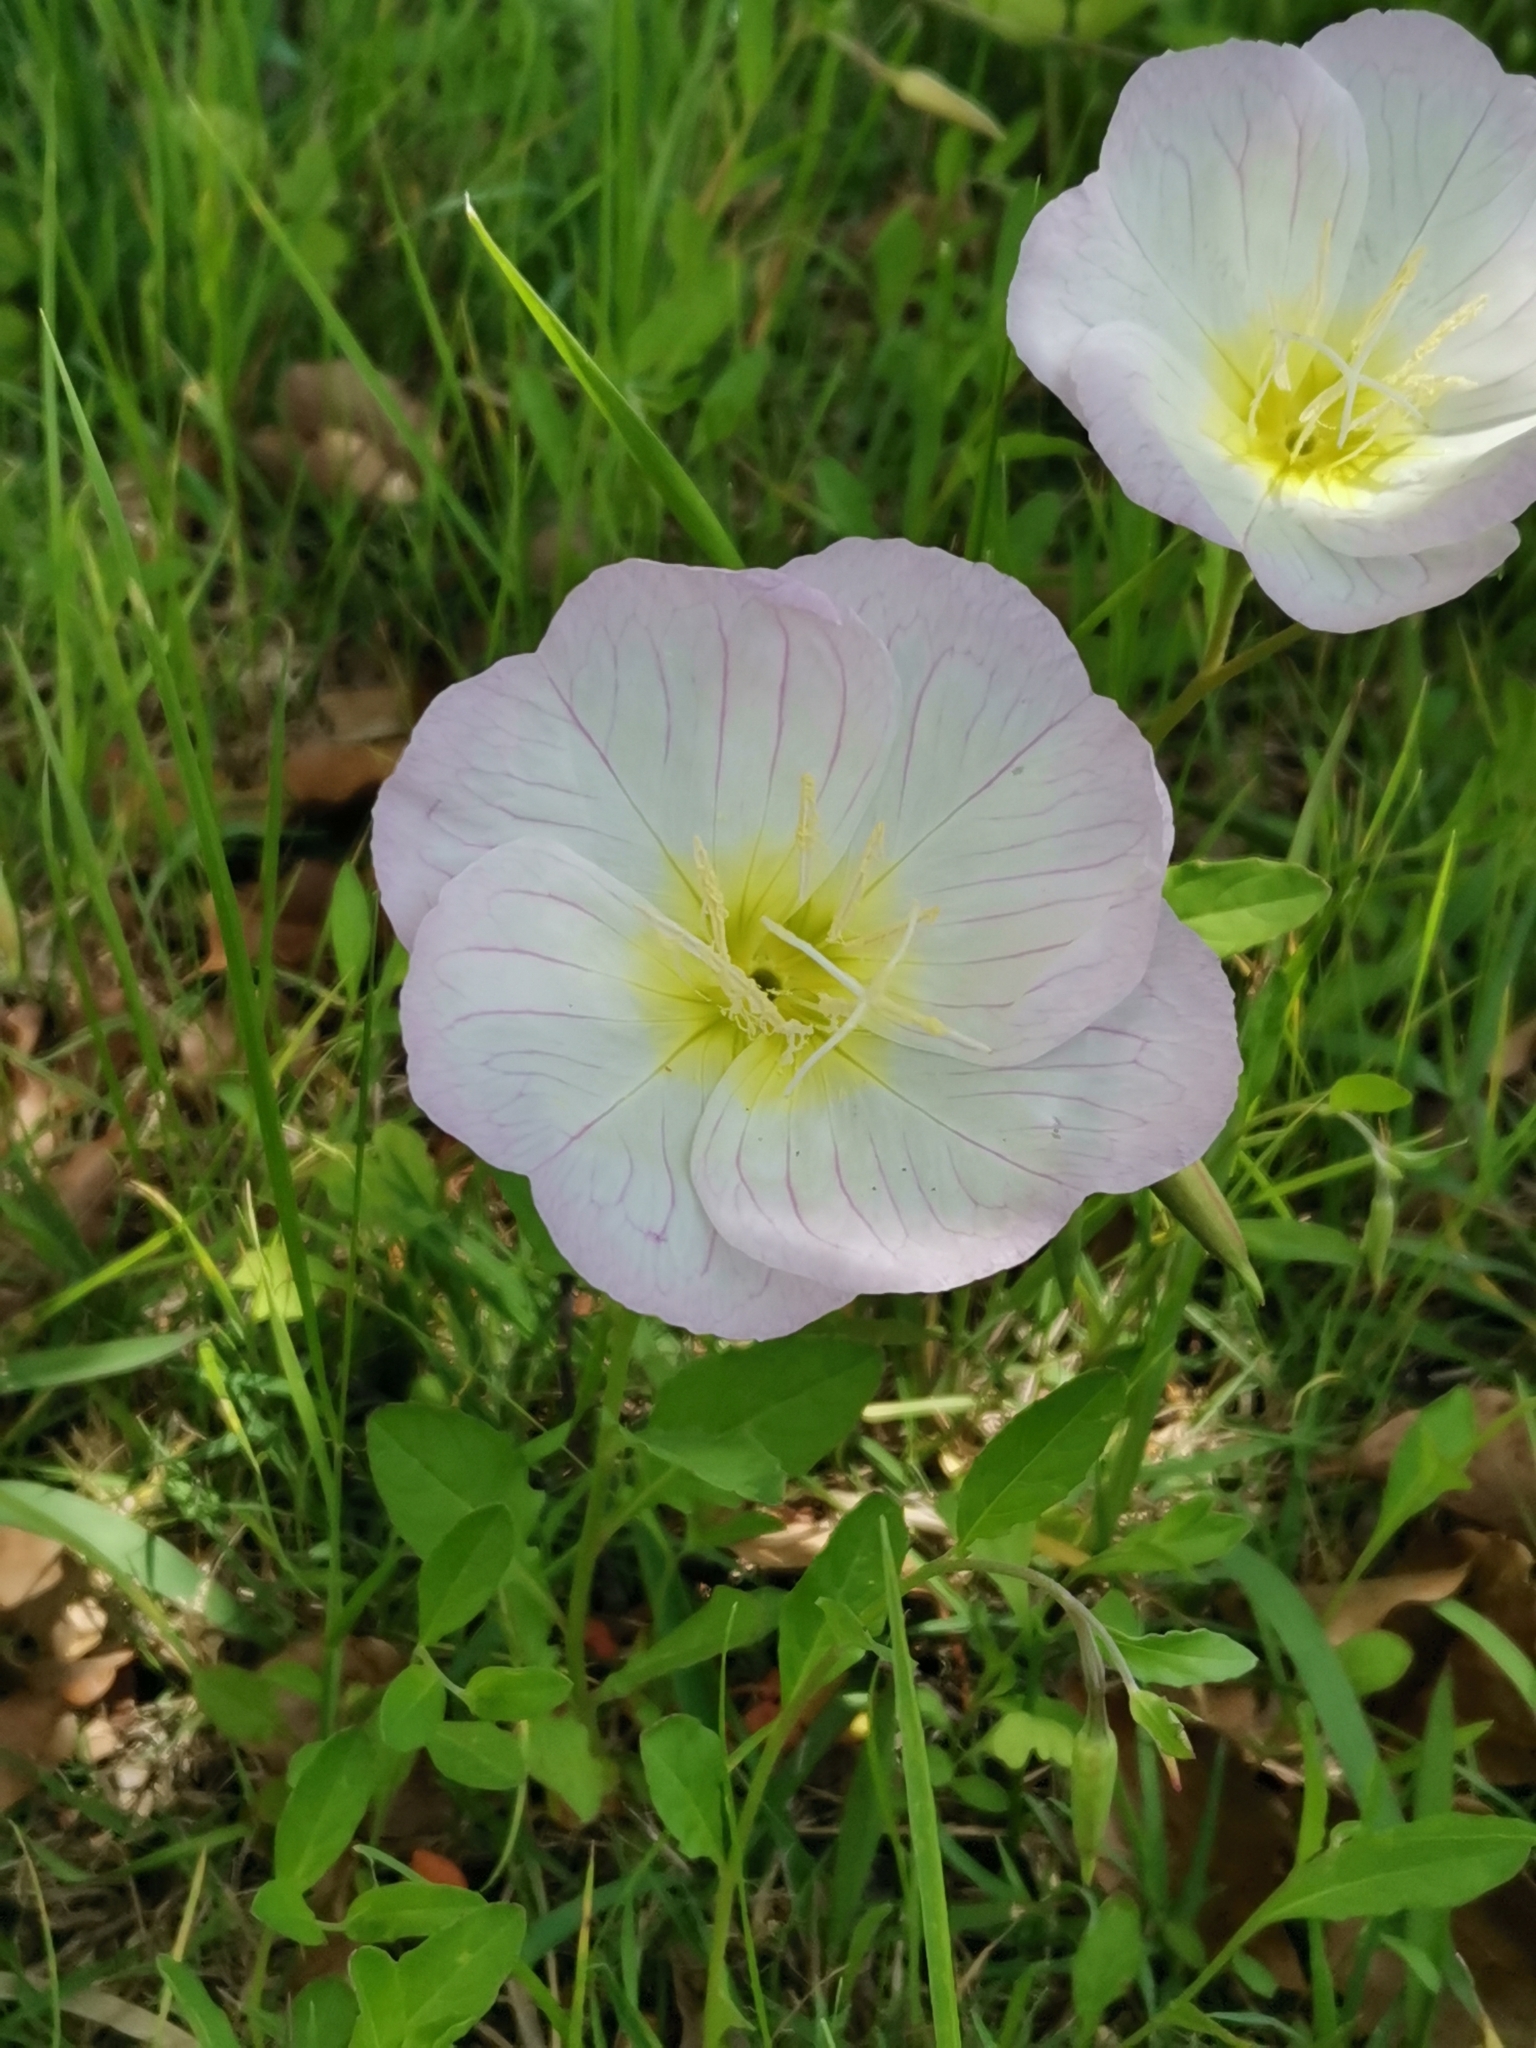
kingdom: Plantae
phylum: Tracheophyta
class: Magnoliopsida
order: Myrtales
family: Onagraceae
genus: Oenothera
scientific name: Oenothera speciosa
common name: White evening-primrose
